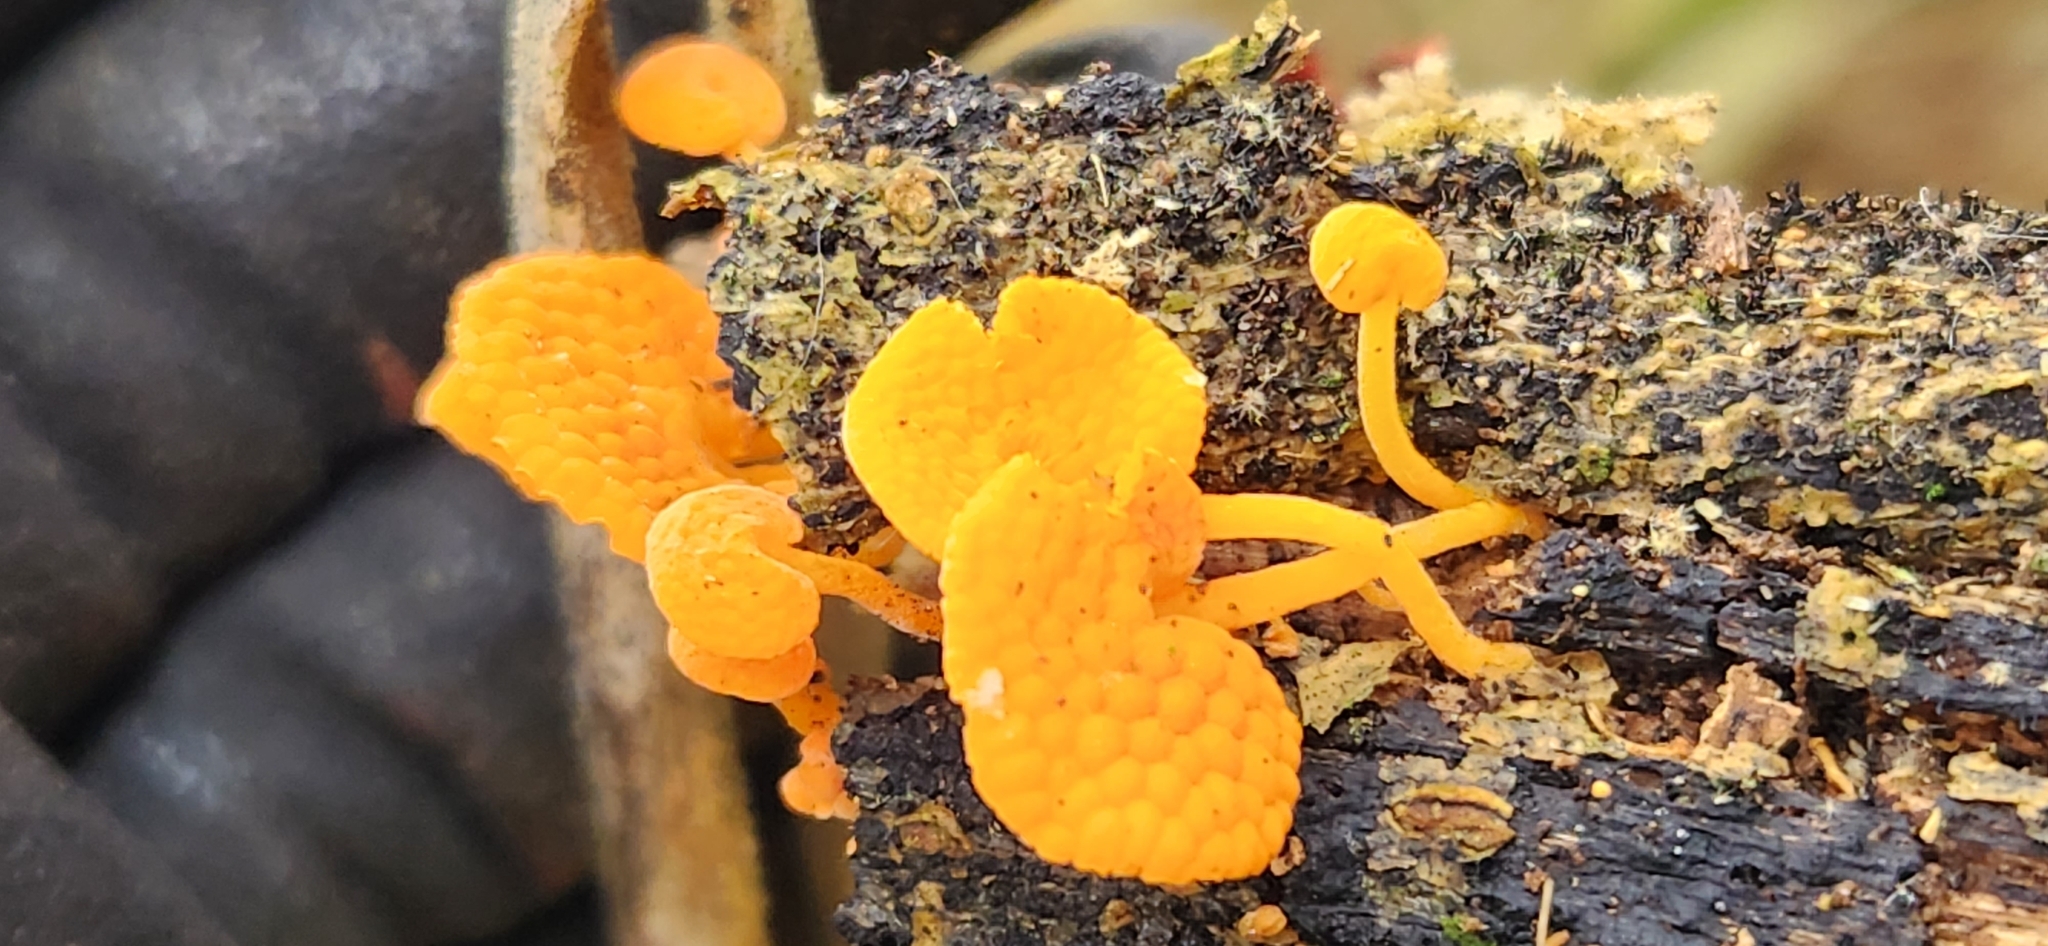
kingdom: Fungi
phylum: Basidiomycota
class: Agaricomycetes
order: Agaricales
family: Mycenaceae
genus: Favolaschia
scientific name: Favolaschia claudopus
